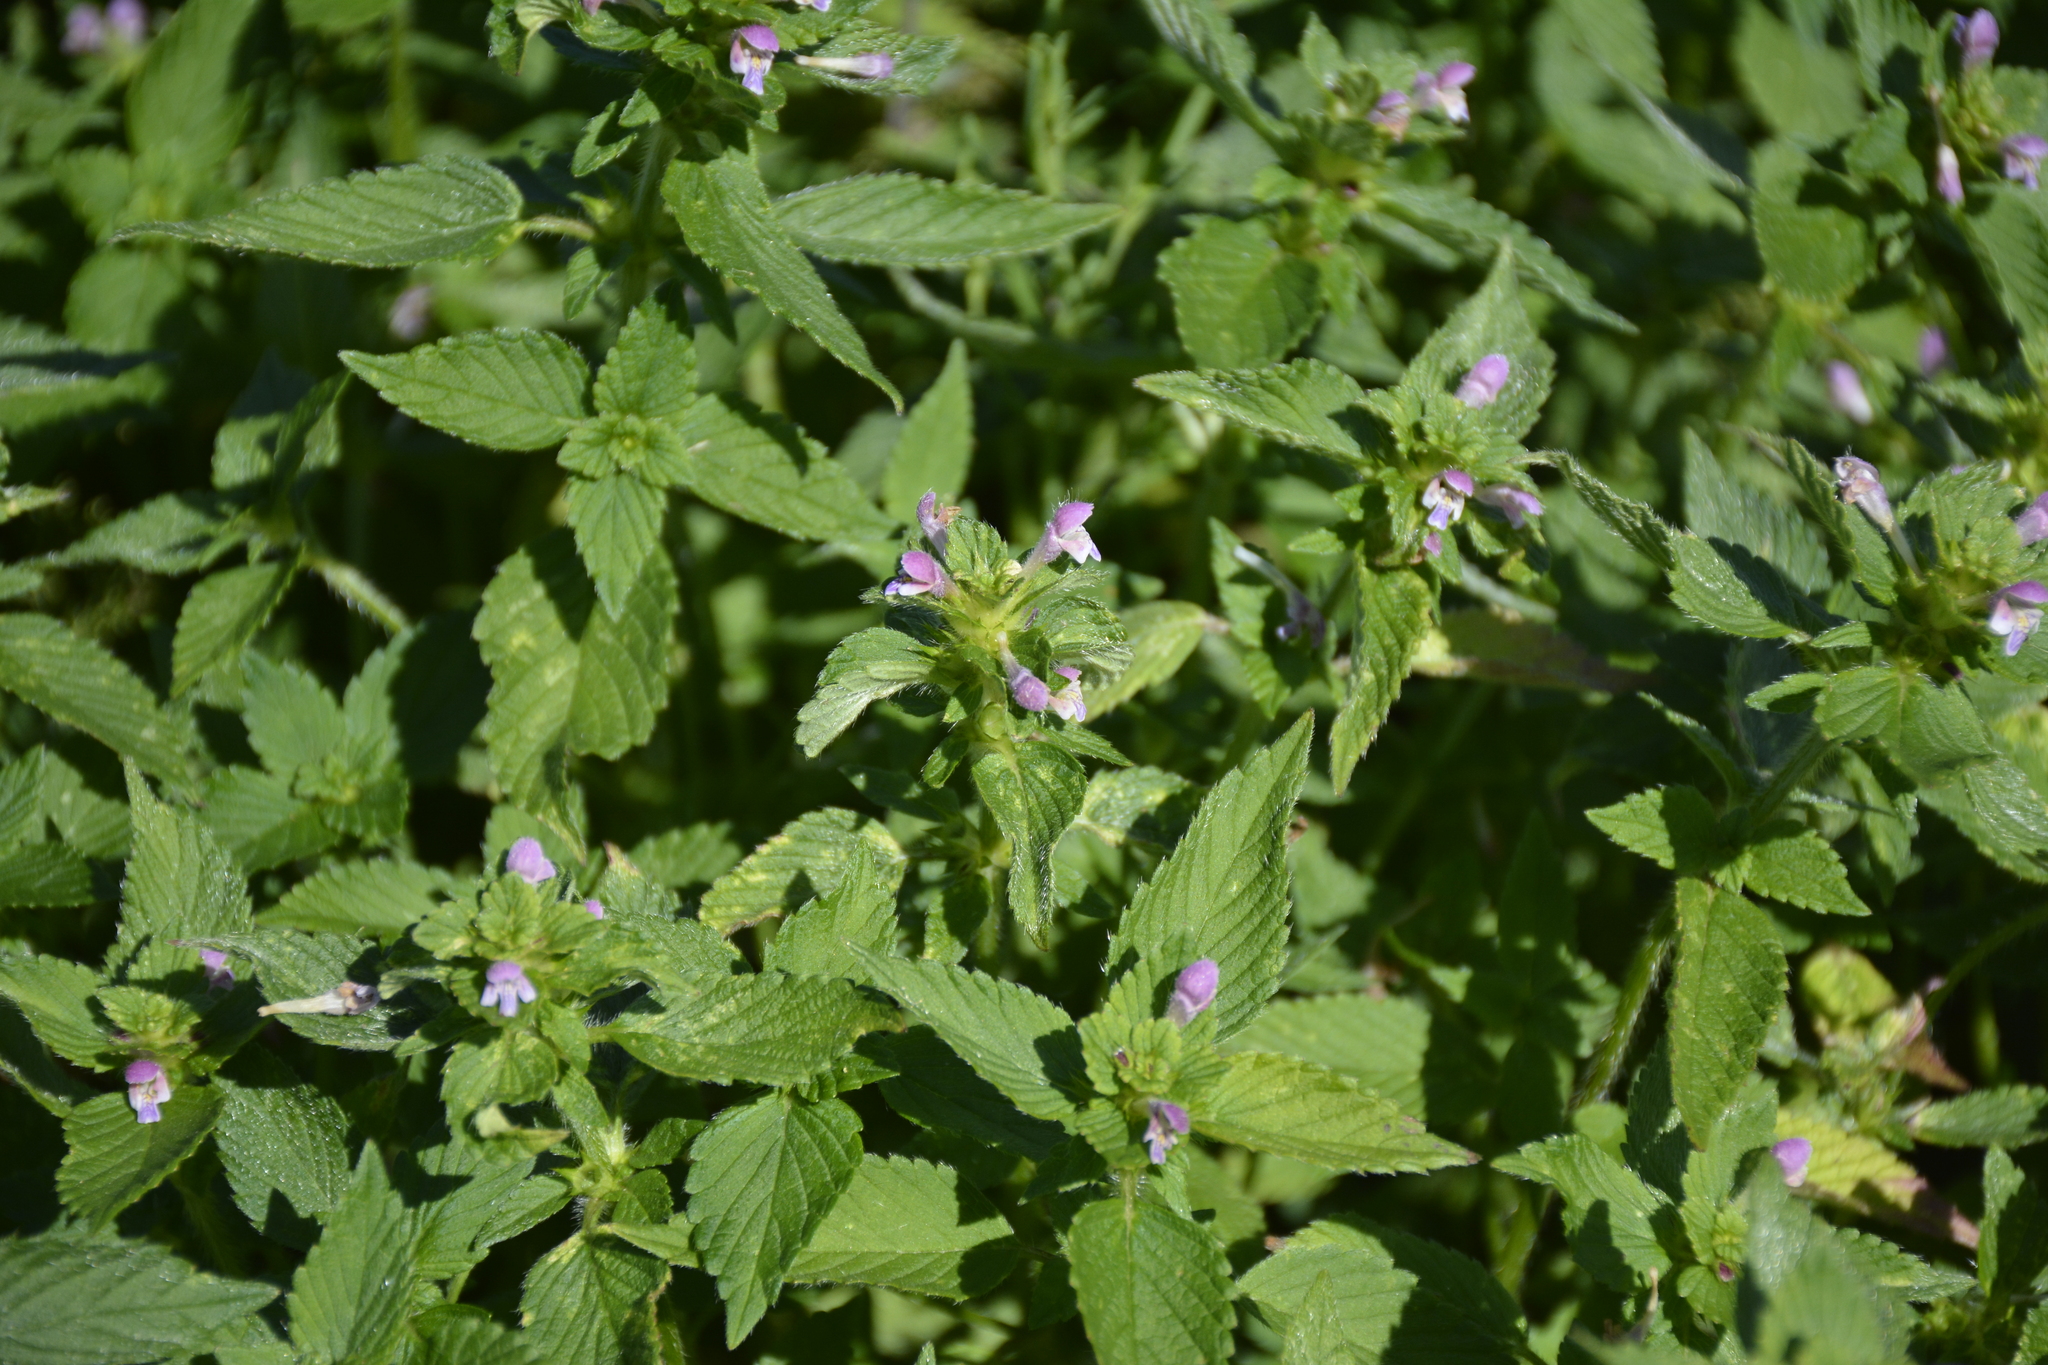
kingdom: Plantae
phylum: Tracheophyta
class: Magnoliopsida
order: Lamiales
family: Lamiaceae
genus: Galeopsis
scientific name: Galeopsis bifida
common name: Bifid hemp-nettle
